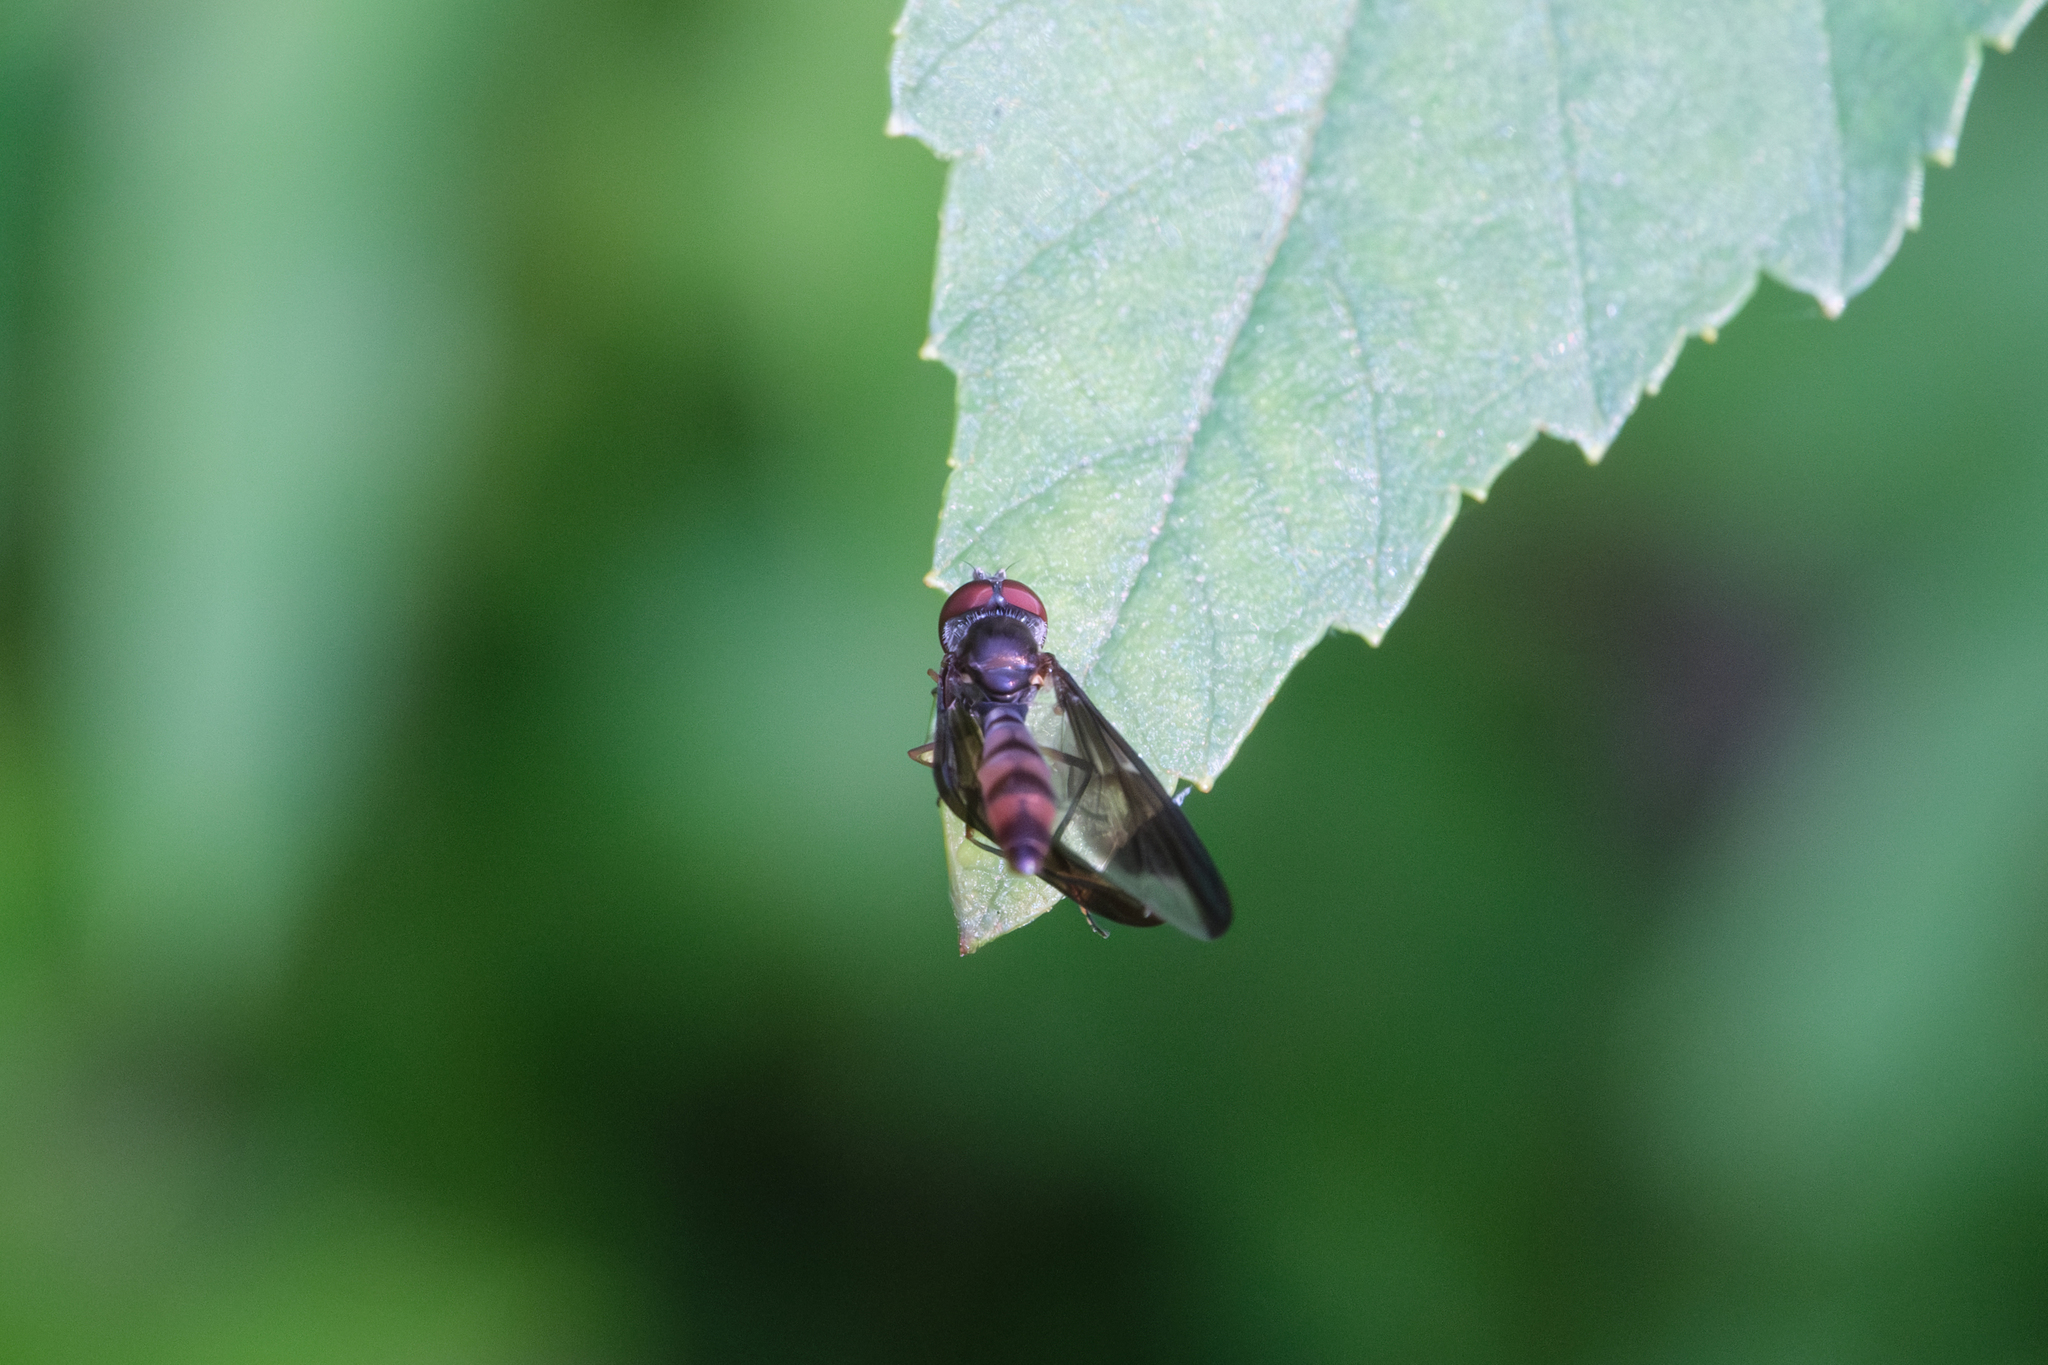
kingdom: Animalia
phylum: Arthropoda
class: Insecta
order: Diptera
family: Syrphidae
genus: Ocyptamus
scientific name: Ocyptamus fuscipennis
